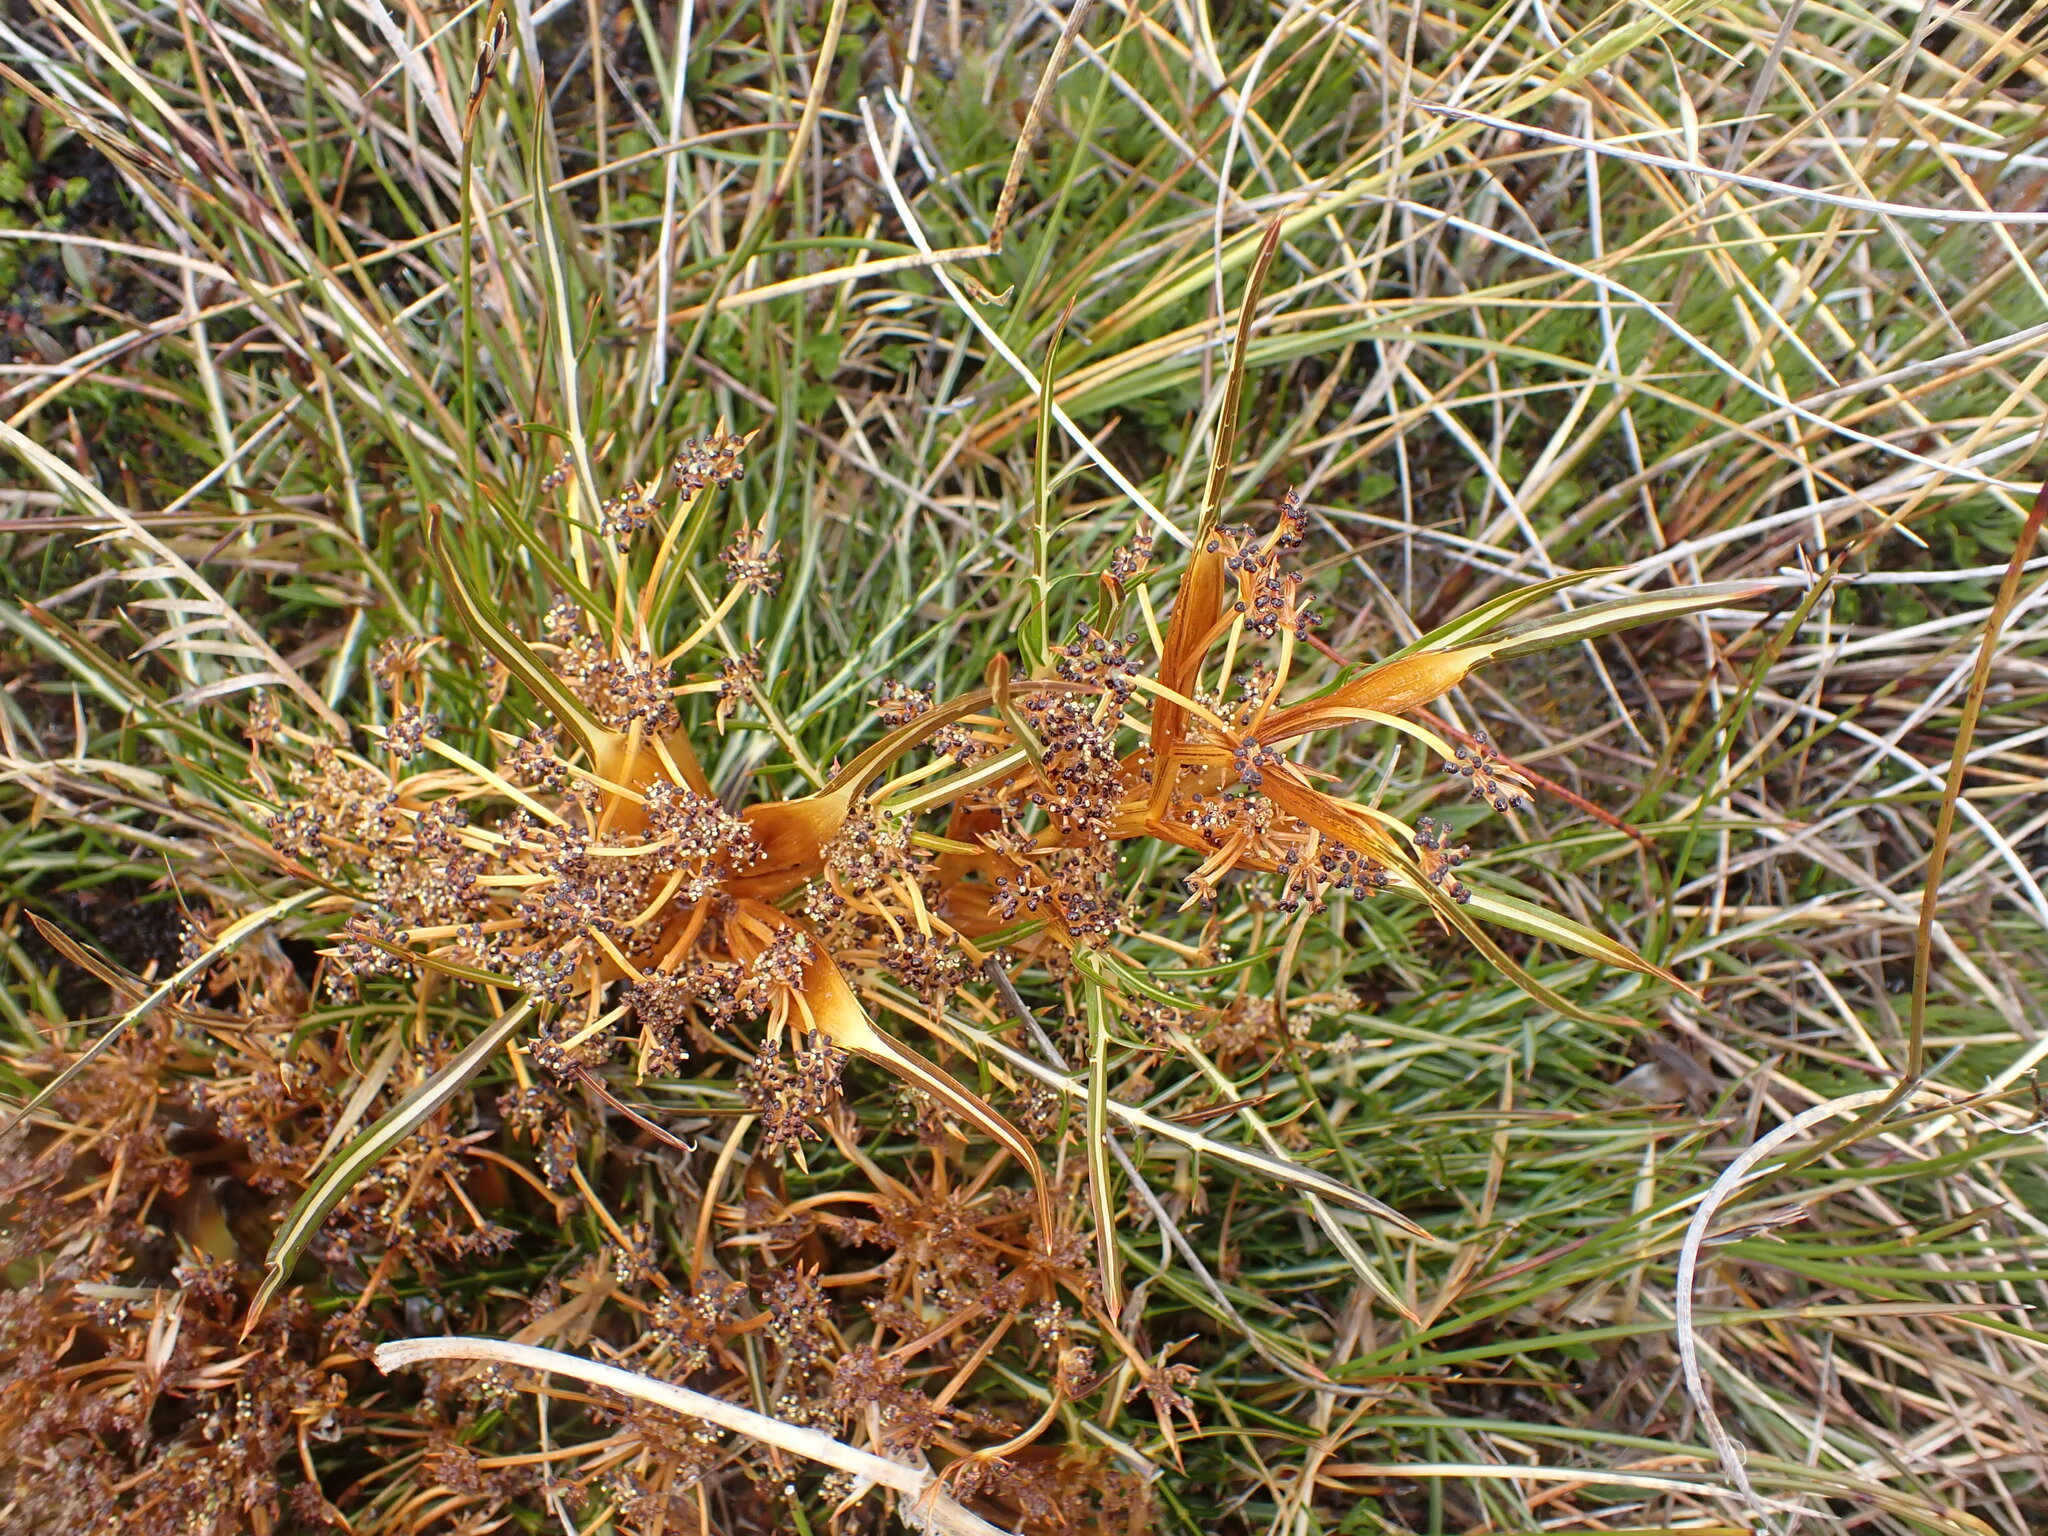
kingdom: Plantae
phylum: Tracheophyta
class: Magnoliopsida
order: Apiales
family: Apiaceae
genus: Aciphylla
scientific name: Aciphylla pinnatifida
